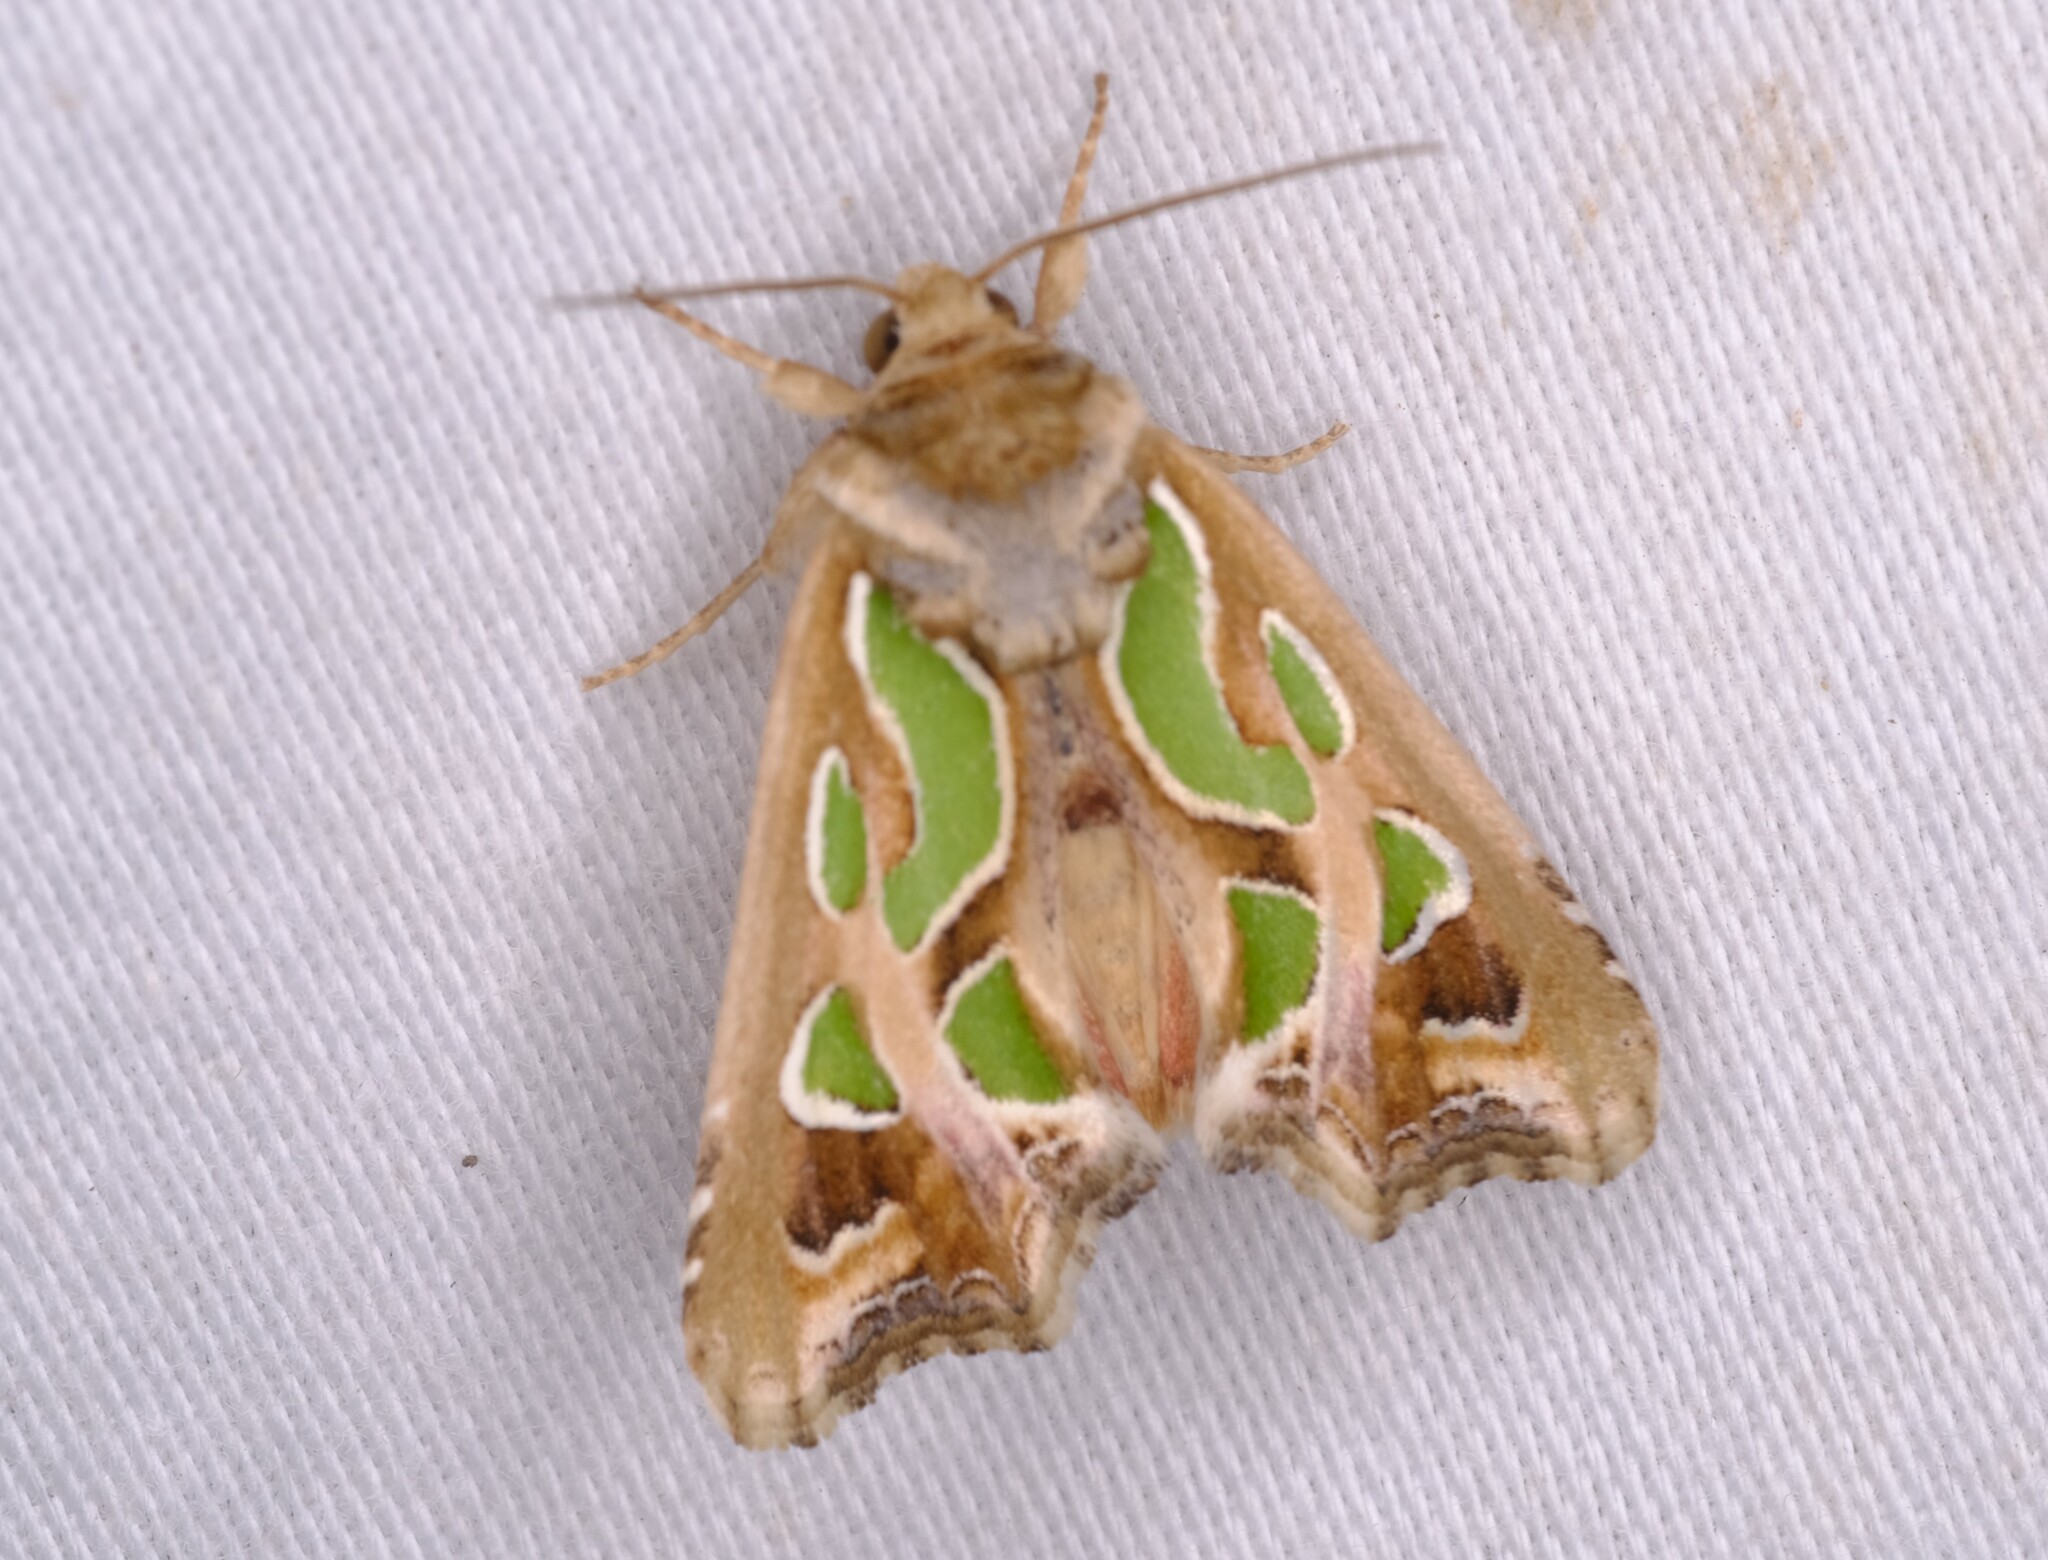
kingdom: Animalia
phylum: Arthropoda
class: Insecta
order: Lepidoptera
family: Noctuidae
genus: Cosmodes
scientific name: Cosmodes elegans
